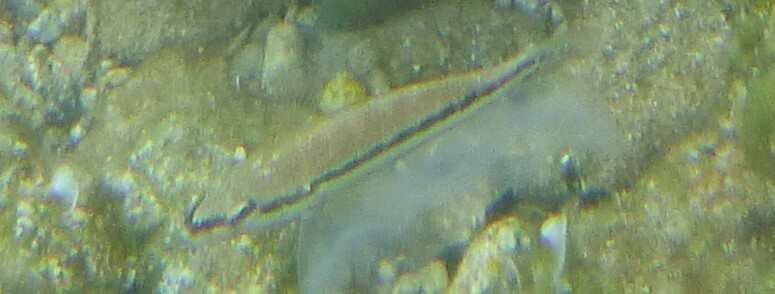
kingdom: Animalia
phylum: Chordata
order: Perciformes
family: Serranidae
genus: Serranus
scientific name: Serranus cabrilla
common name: Comber
